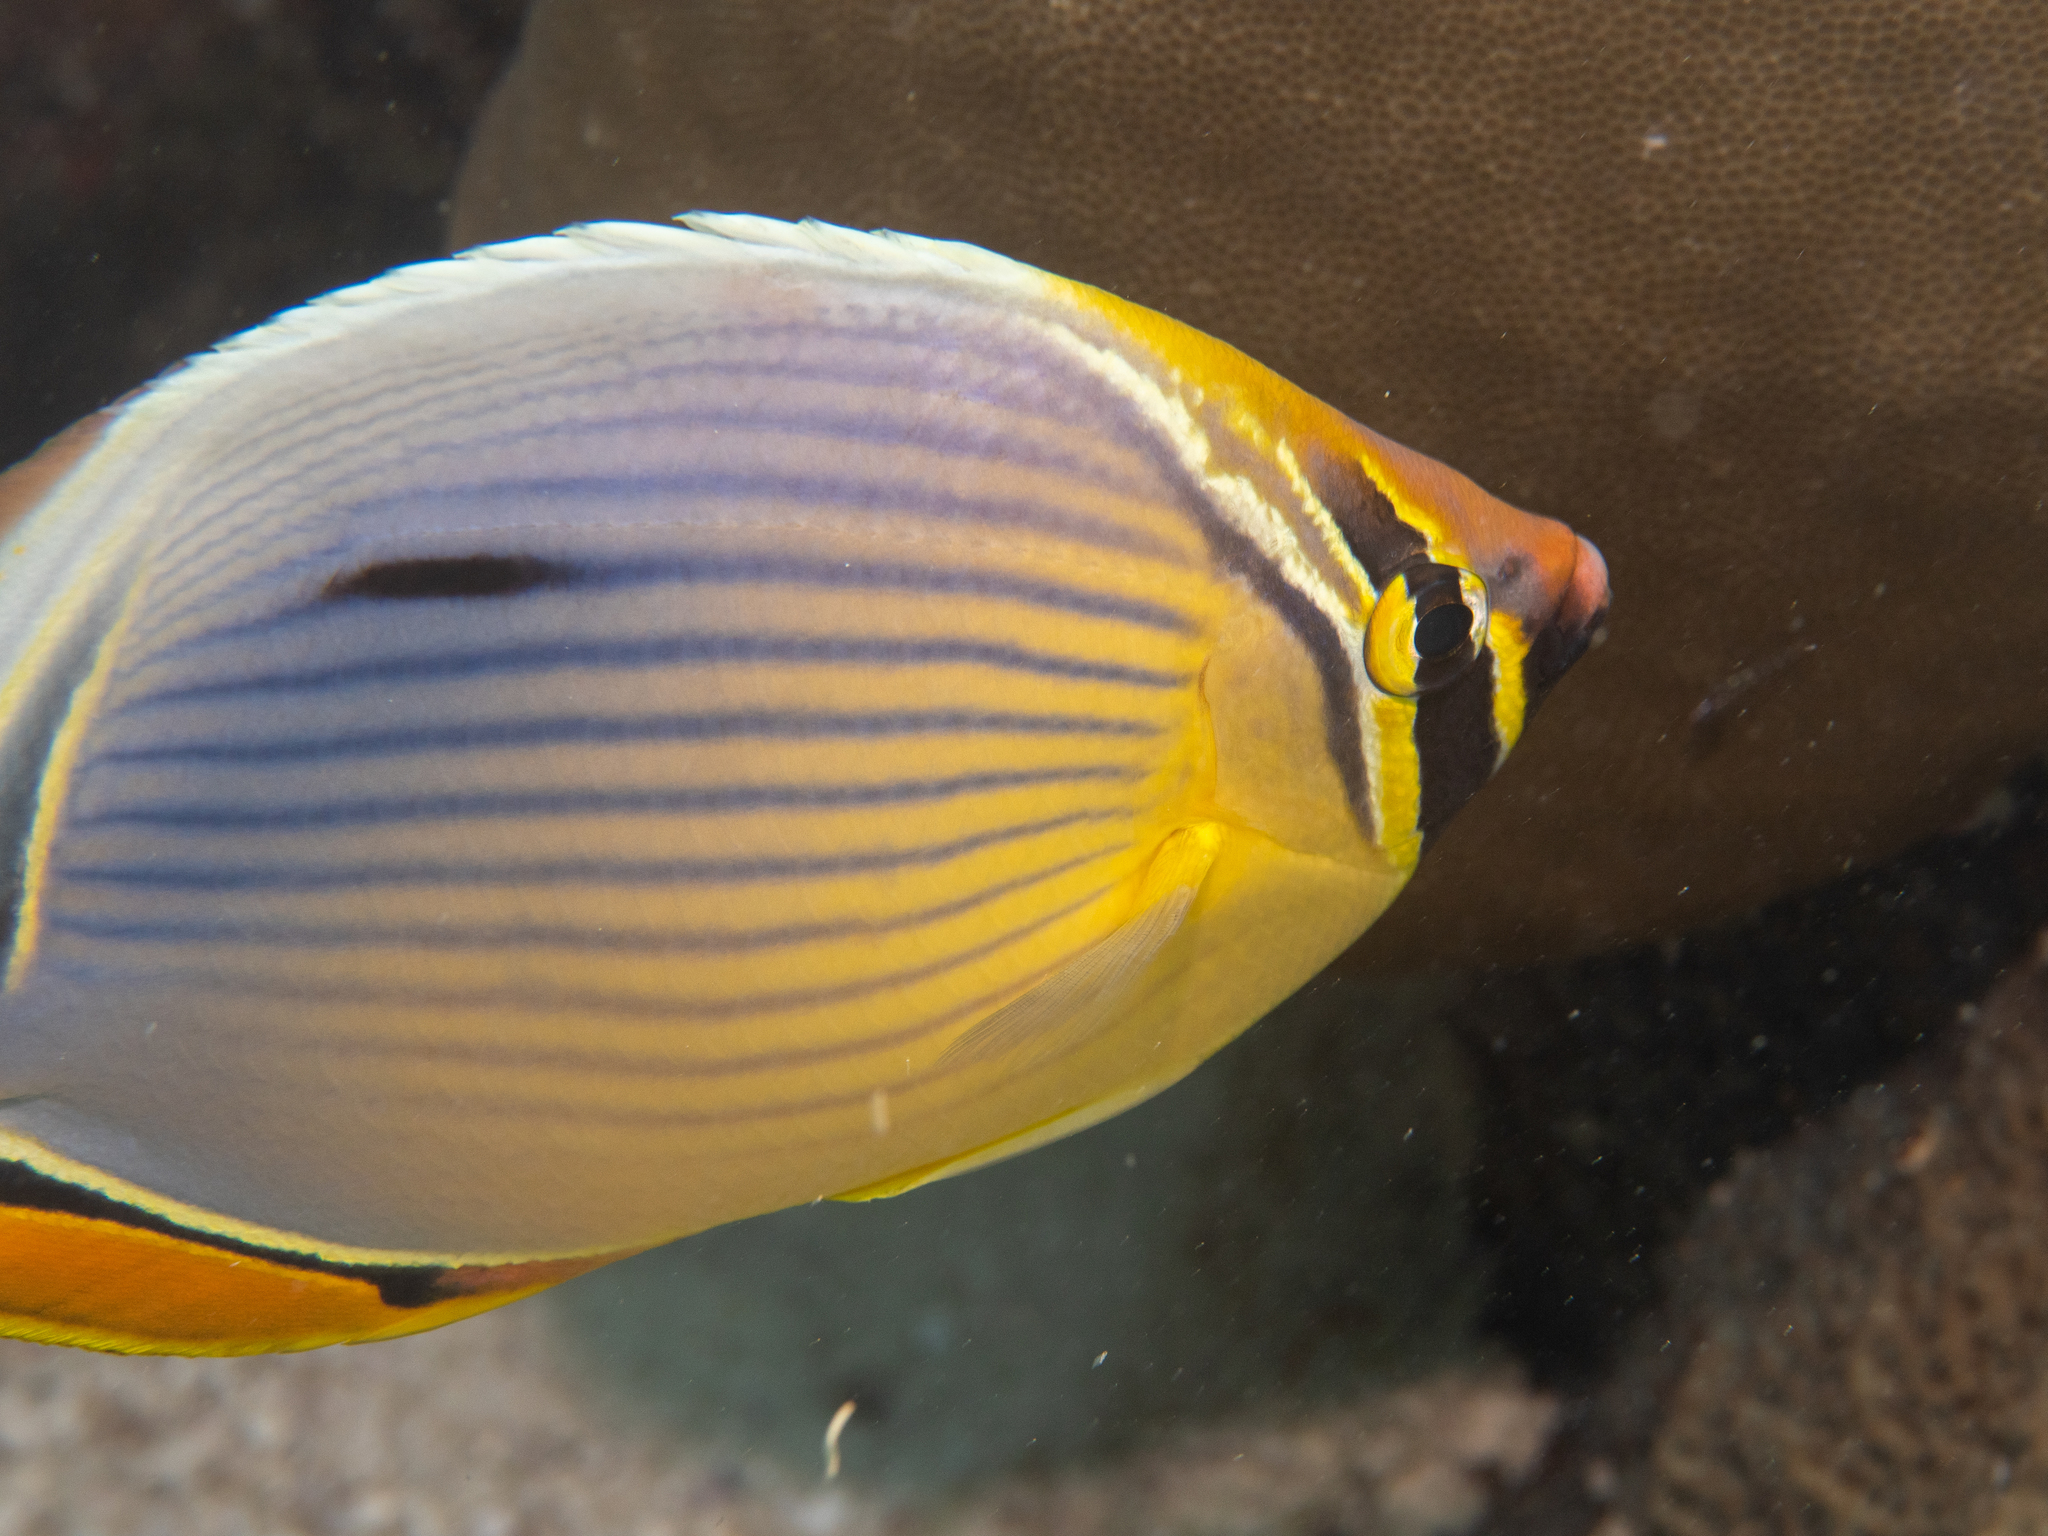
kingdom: Animalia
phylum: Chordata
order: Perciformes
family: Chaetodontidae
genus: Chaetodon
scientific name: Chaetodon trifasciatus
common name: Redfin butterflyfish
